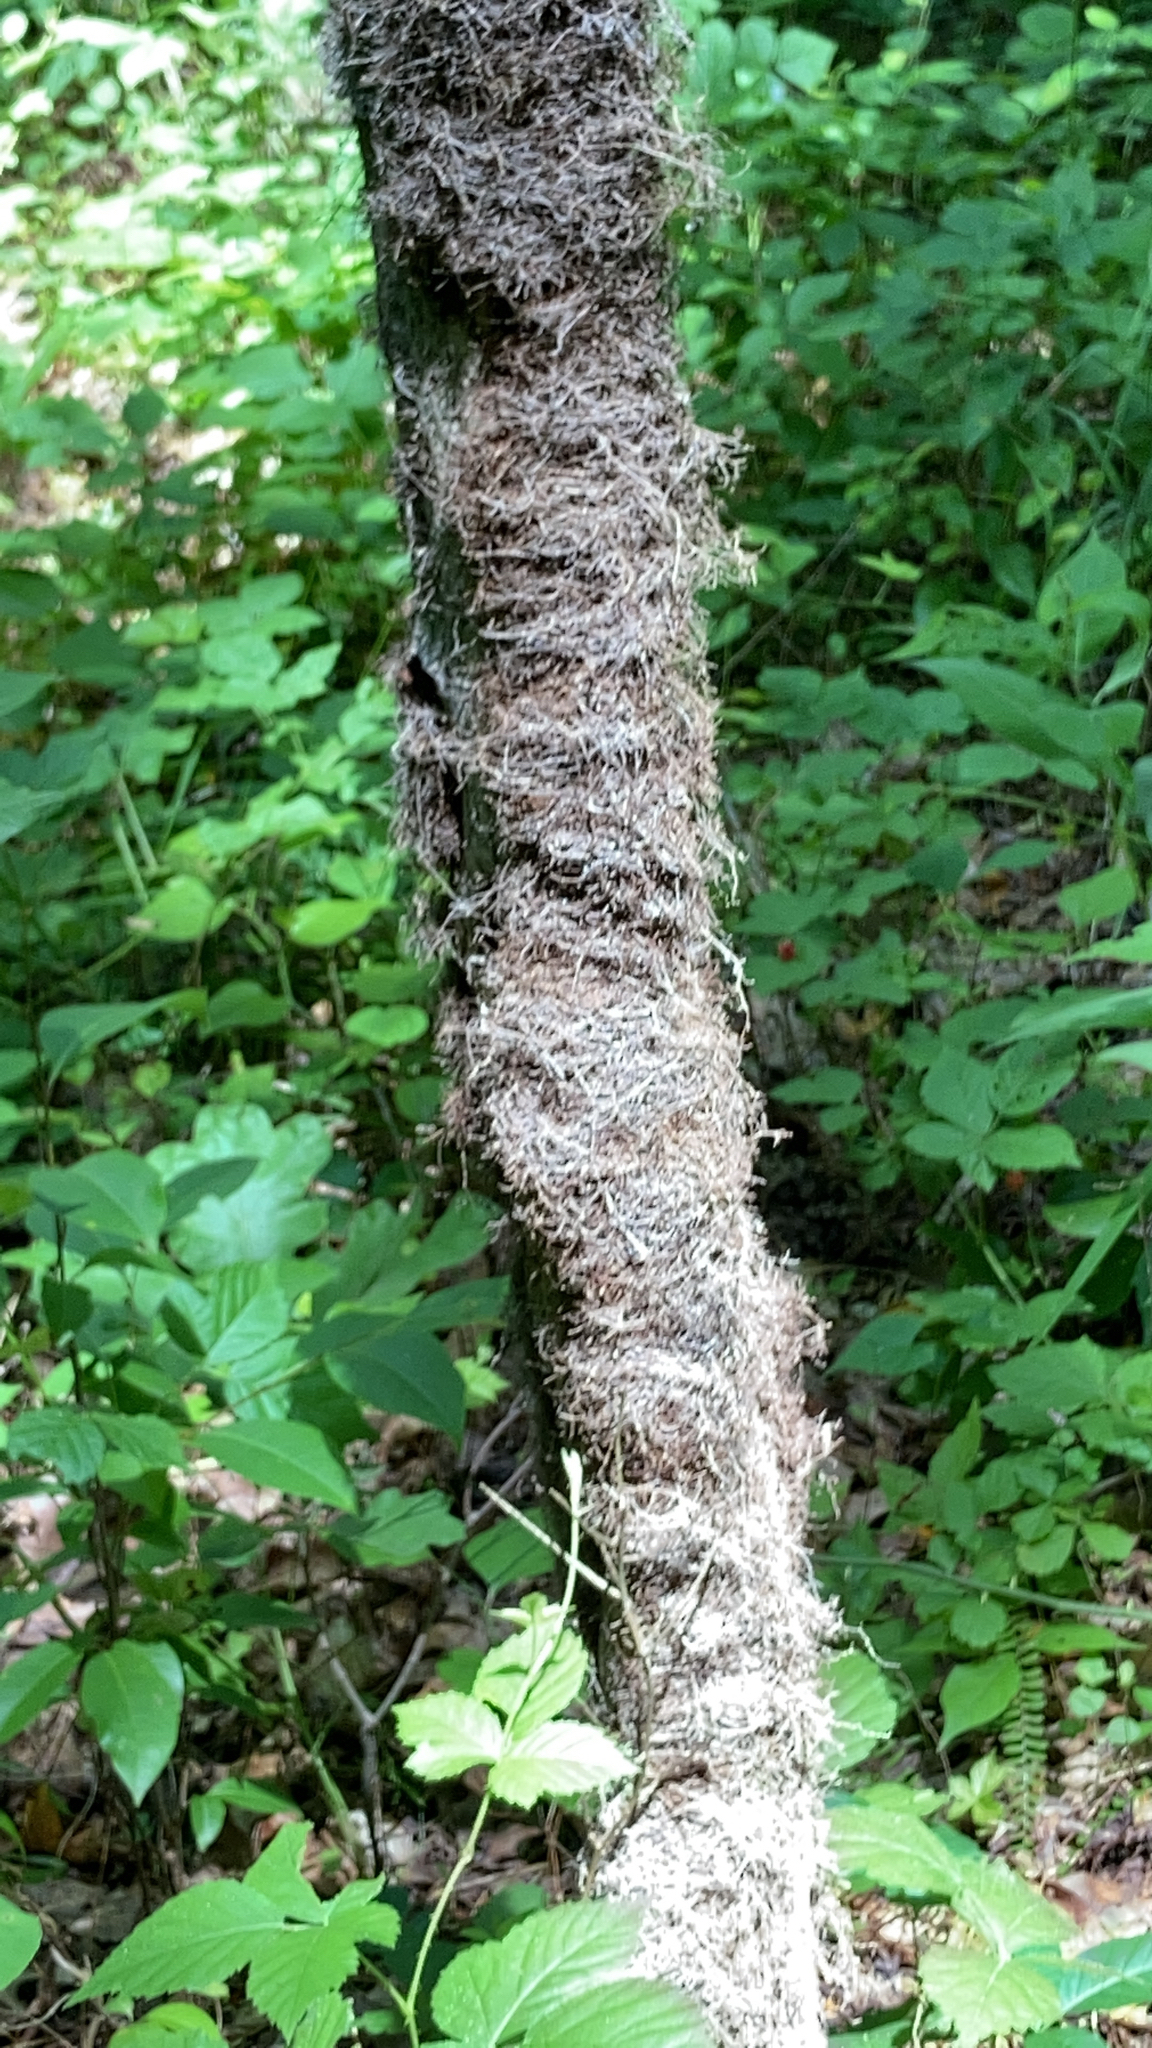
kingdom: Plantae
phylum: Tracheophyta
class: Magnoliopsida
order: Sapindales
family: Anacardiaceae
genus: Toxicodendron
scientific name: Toxicodendron radicans
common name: Poison ivy
